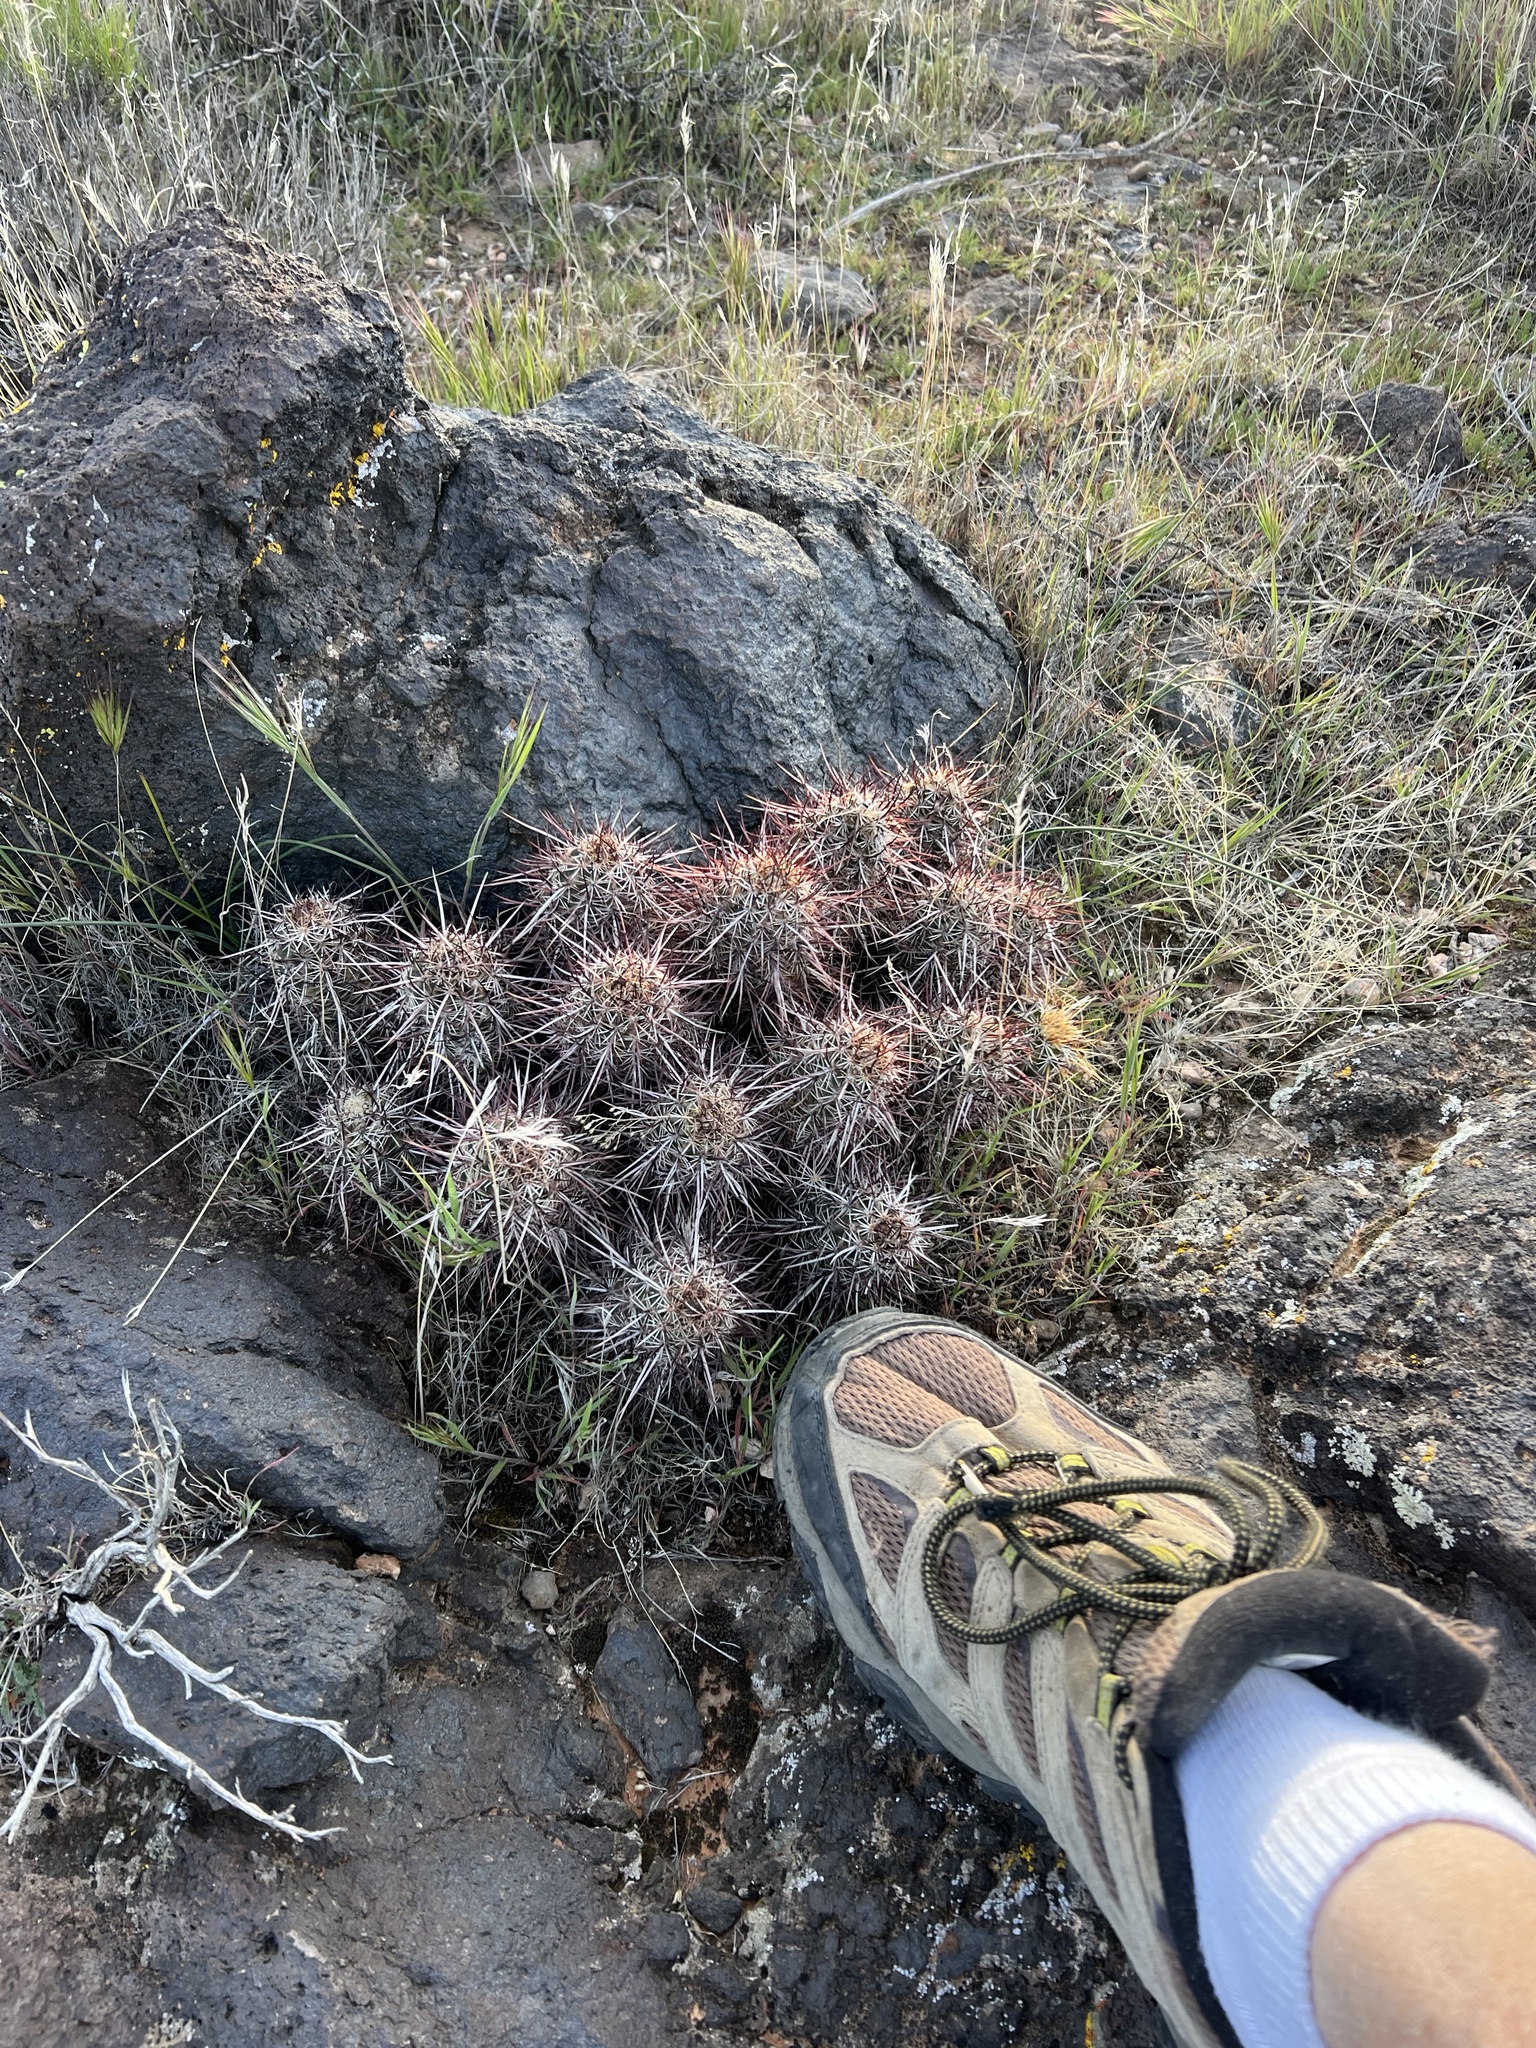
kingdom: Plantae
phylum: Tracheophyta
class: Magnoliopsida
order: Caryophyllales
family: Cactaceae
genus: Echinocereus
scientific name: Echinocereus relictus
